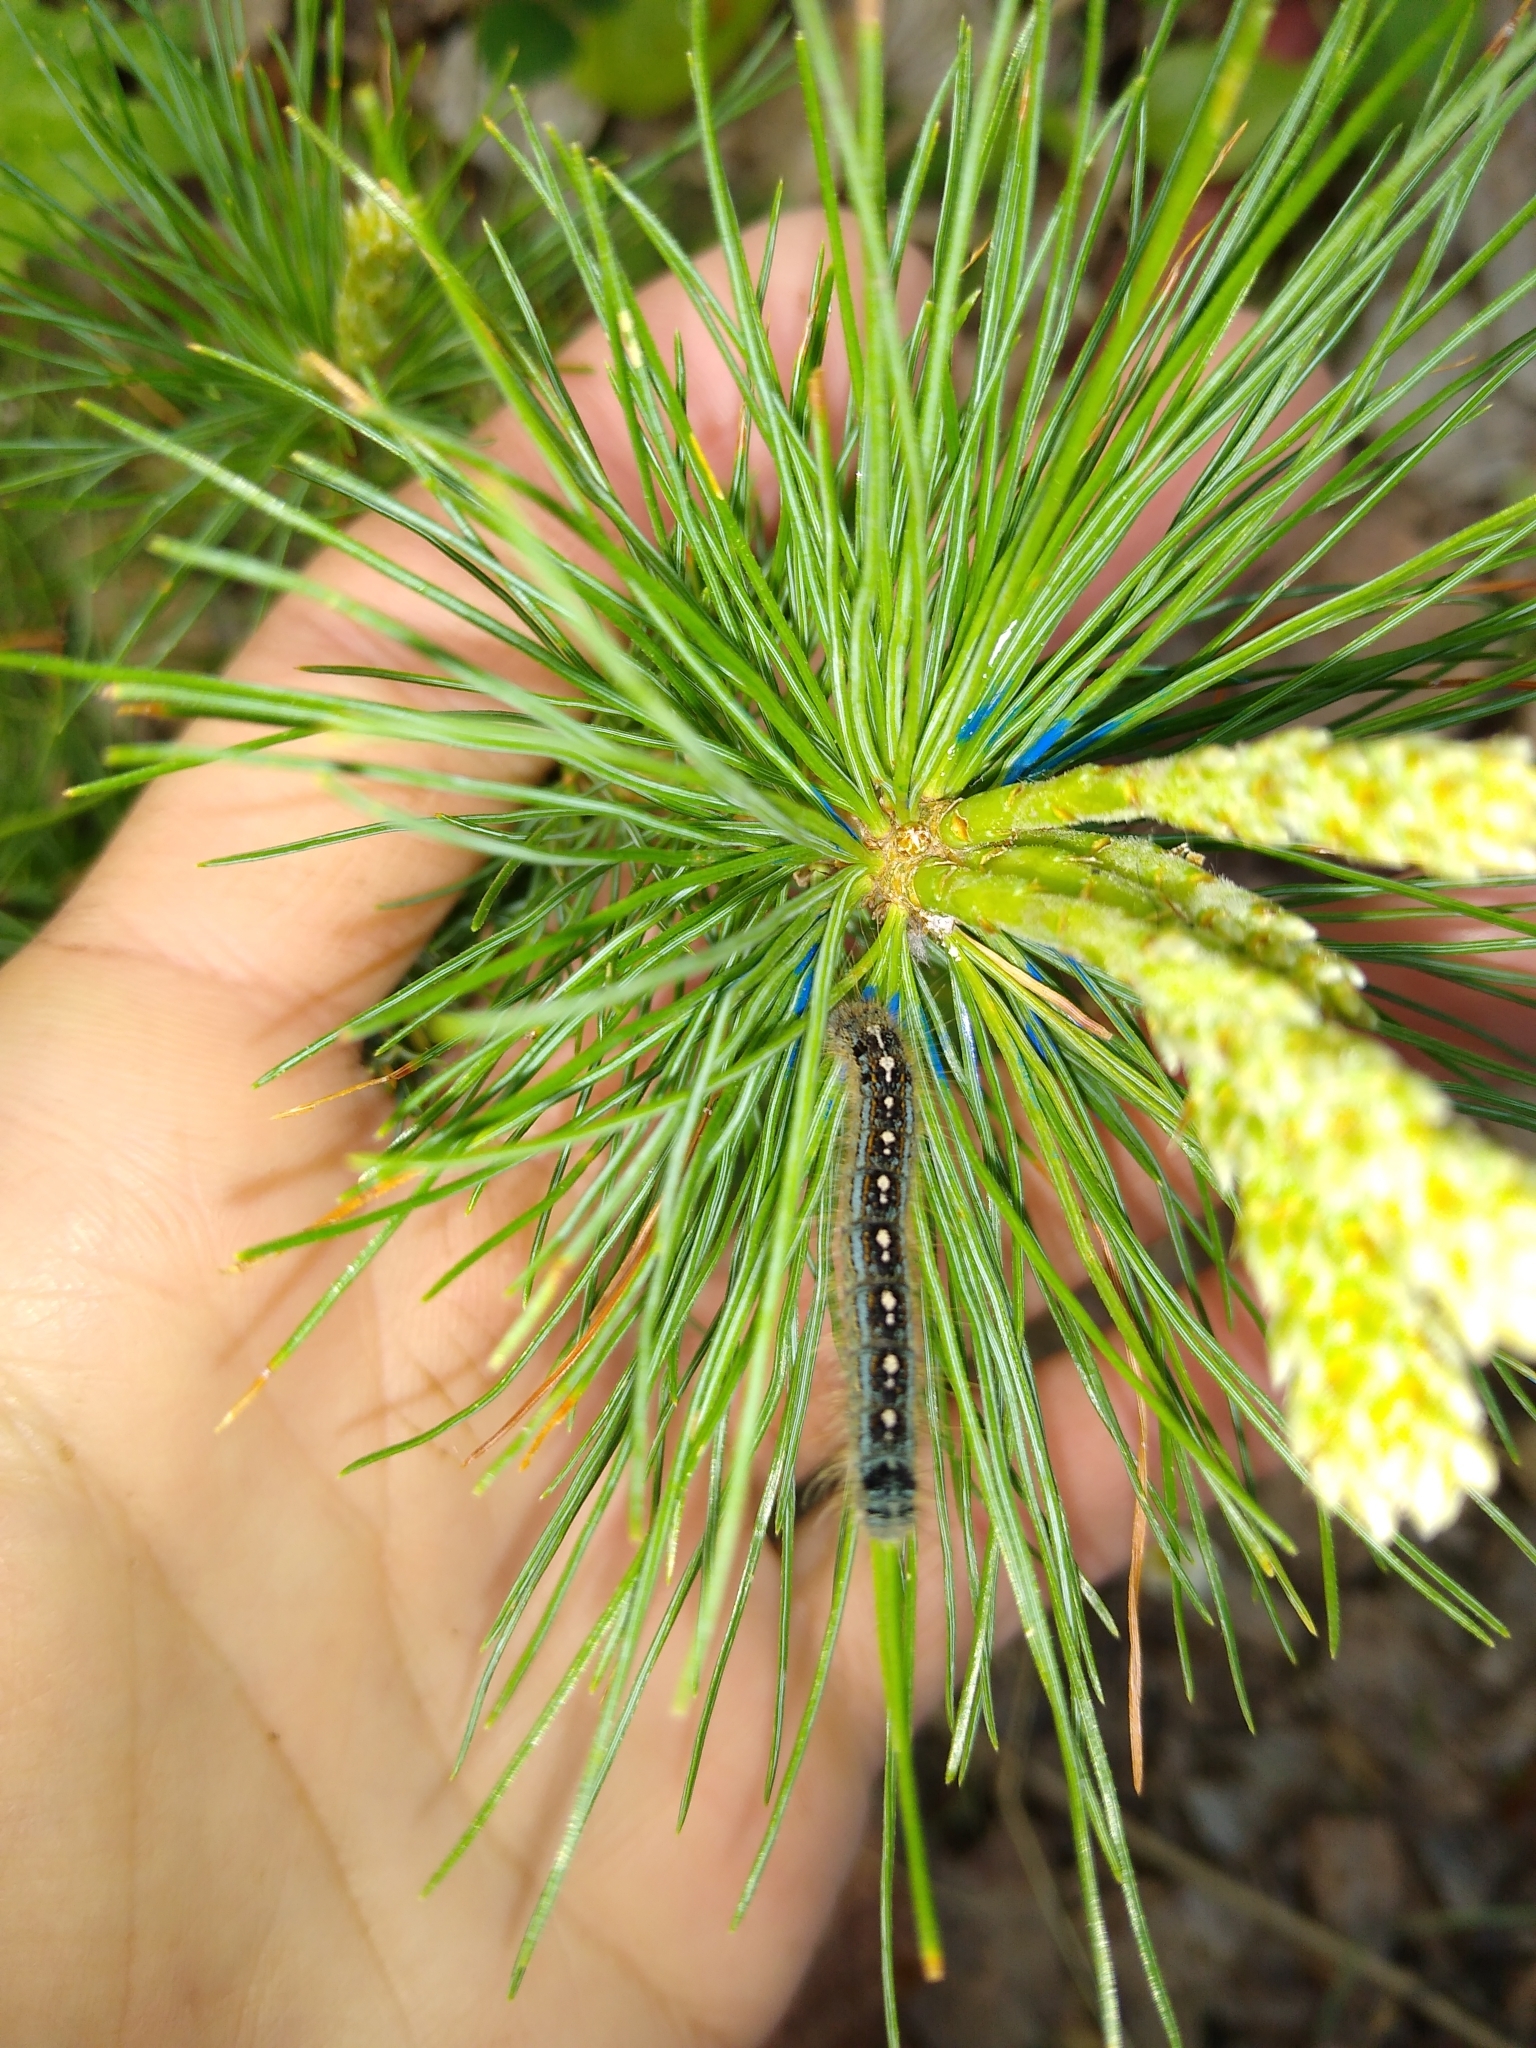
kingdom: Animalia
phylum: Arthropoda
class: Insecta
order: Lepidoptera
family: Lasiocampidae
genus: Malacosoma
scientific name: Malacosoma disstria
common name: Forest tent caterpillar
